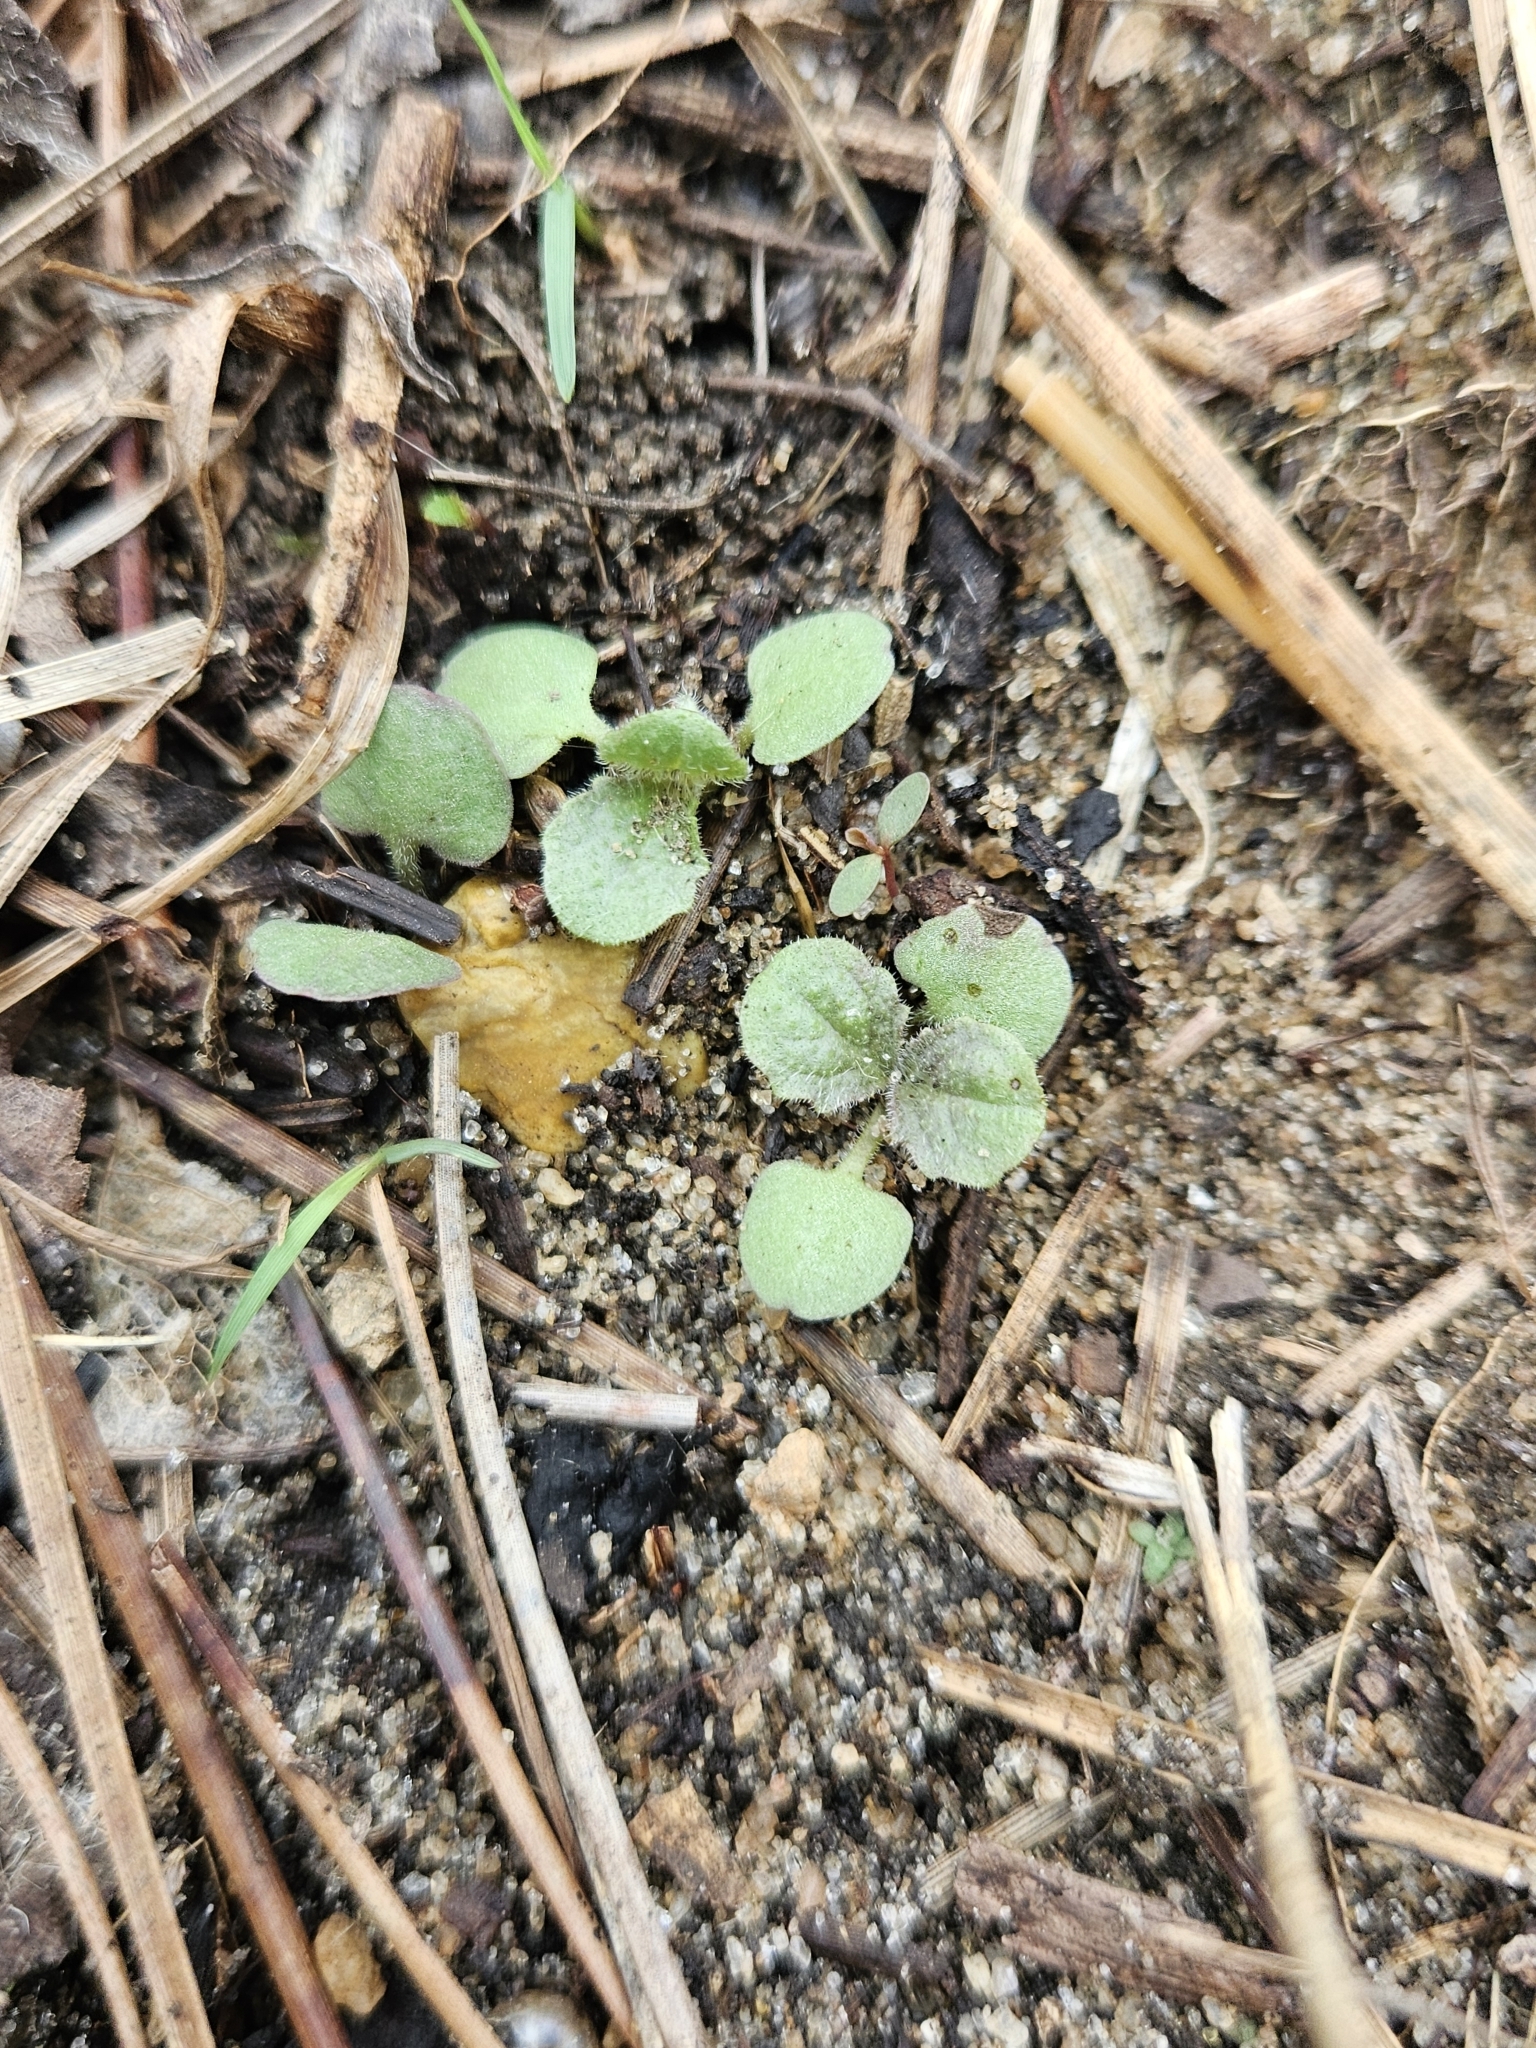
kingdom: Plantae
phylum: Tracheophyta
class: Magnoliopsida
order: Lamiales
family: Lamiaceae
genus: Salvia
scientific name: Salvia lyrata
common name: Cancerweed
